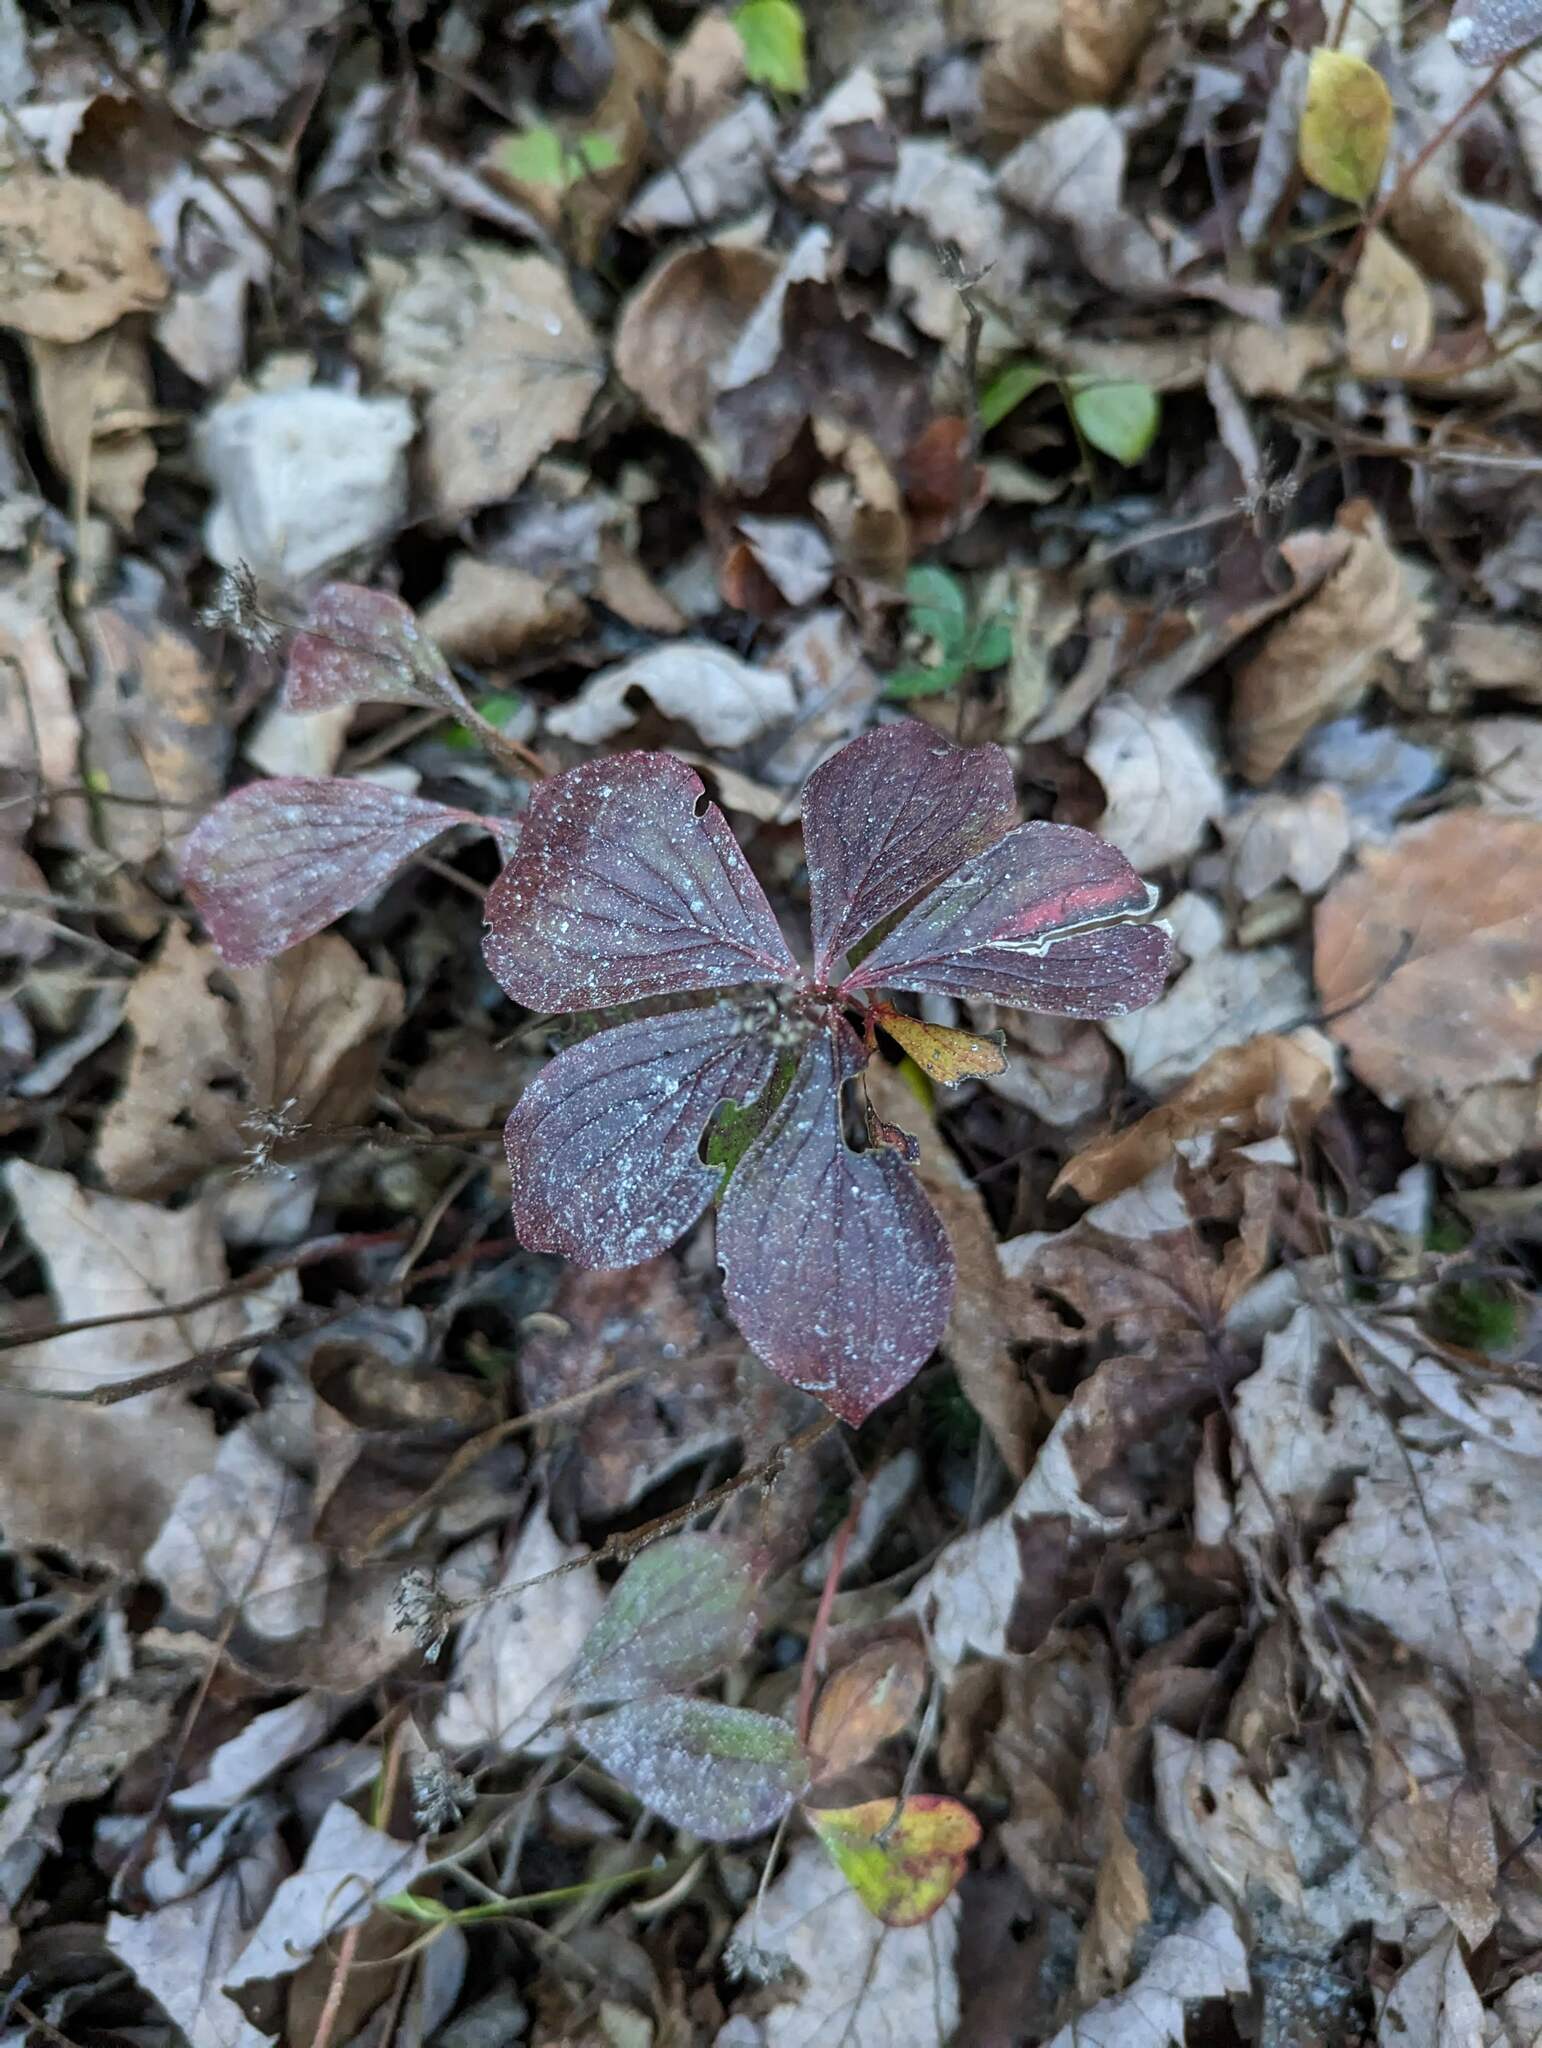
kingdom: Plantae
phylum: Tracheophyta
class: Magnoliopsida
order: Cornales
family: Cornaceae
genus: Cornus
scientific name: Cornus canadensis
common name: Creeping dogwood
